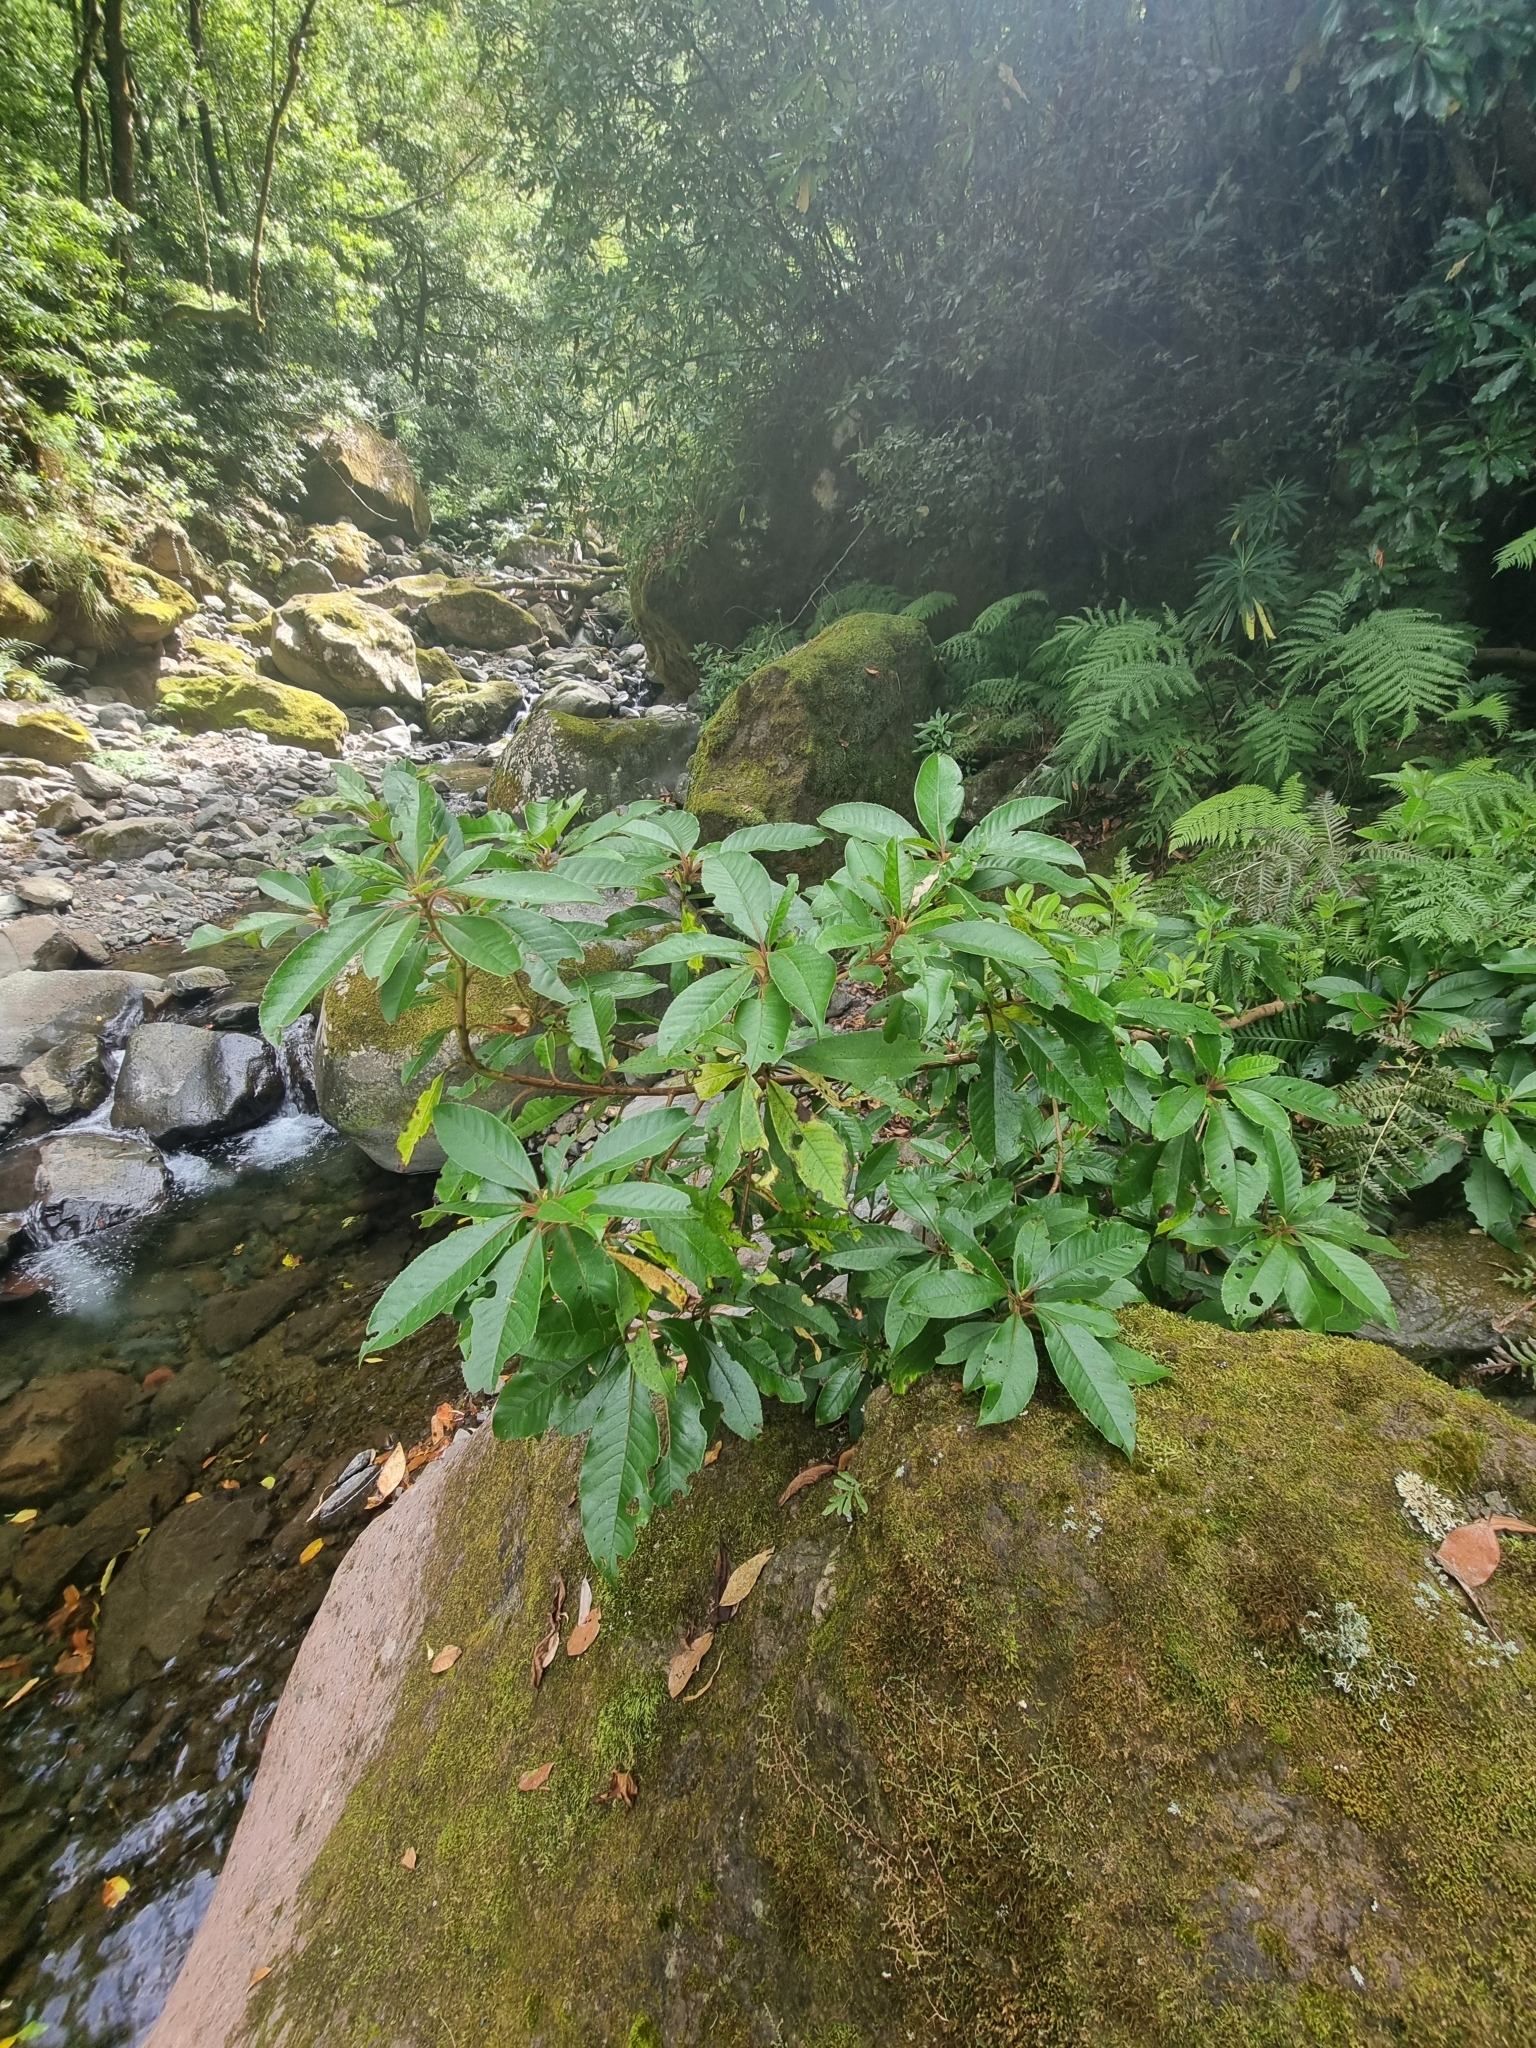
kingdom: Plantae
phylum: Tracheophyta
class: Magnoliopsida
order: Ericales
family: Clethraceae
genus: Clethra
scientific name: Clethra arborea
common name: Lily-of-the-valley-tree
